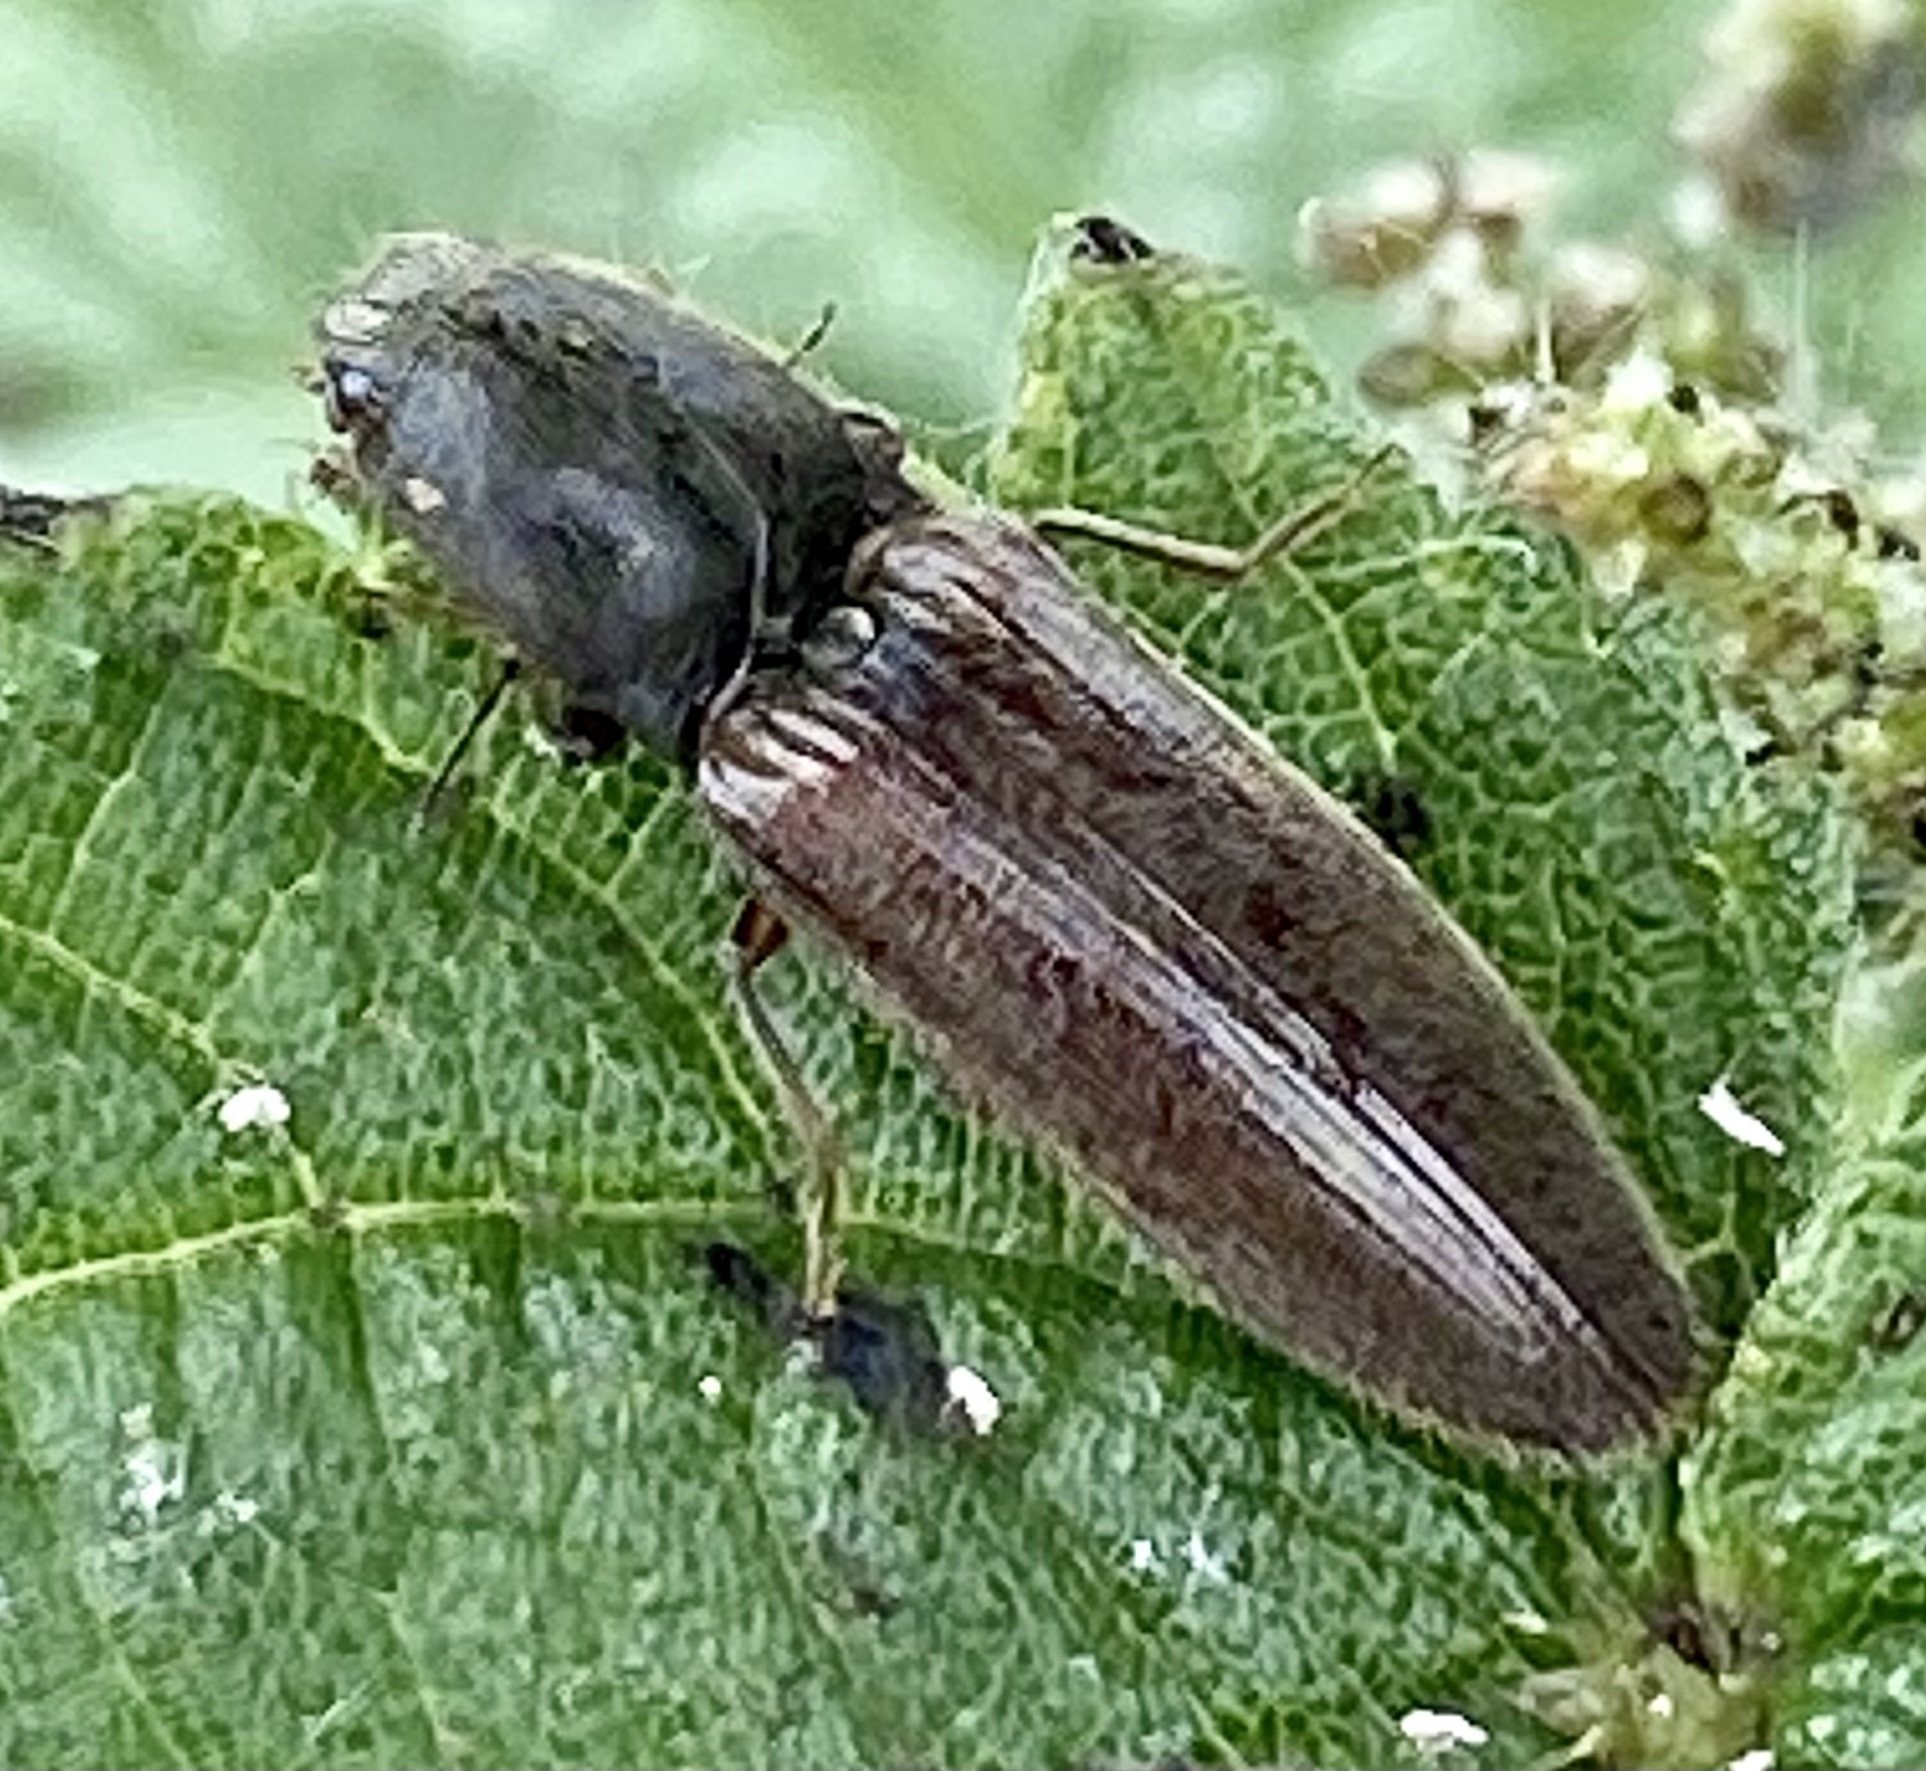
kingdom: Animalia
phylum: Arthropoda
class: Insecta
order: Coleoptera
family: Elateridae
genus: Athous
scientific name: Athous haemorrhoidalis
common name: Red-brown click beetle
